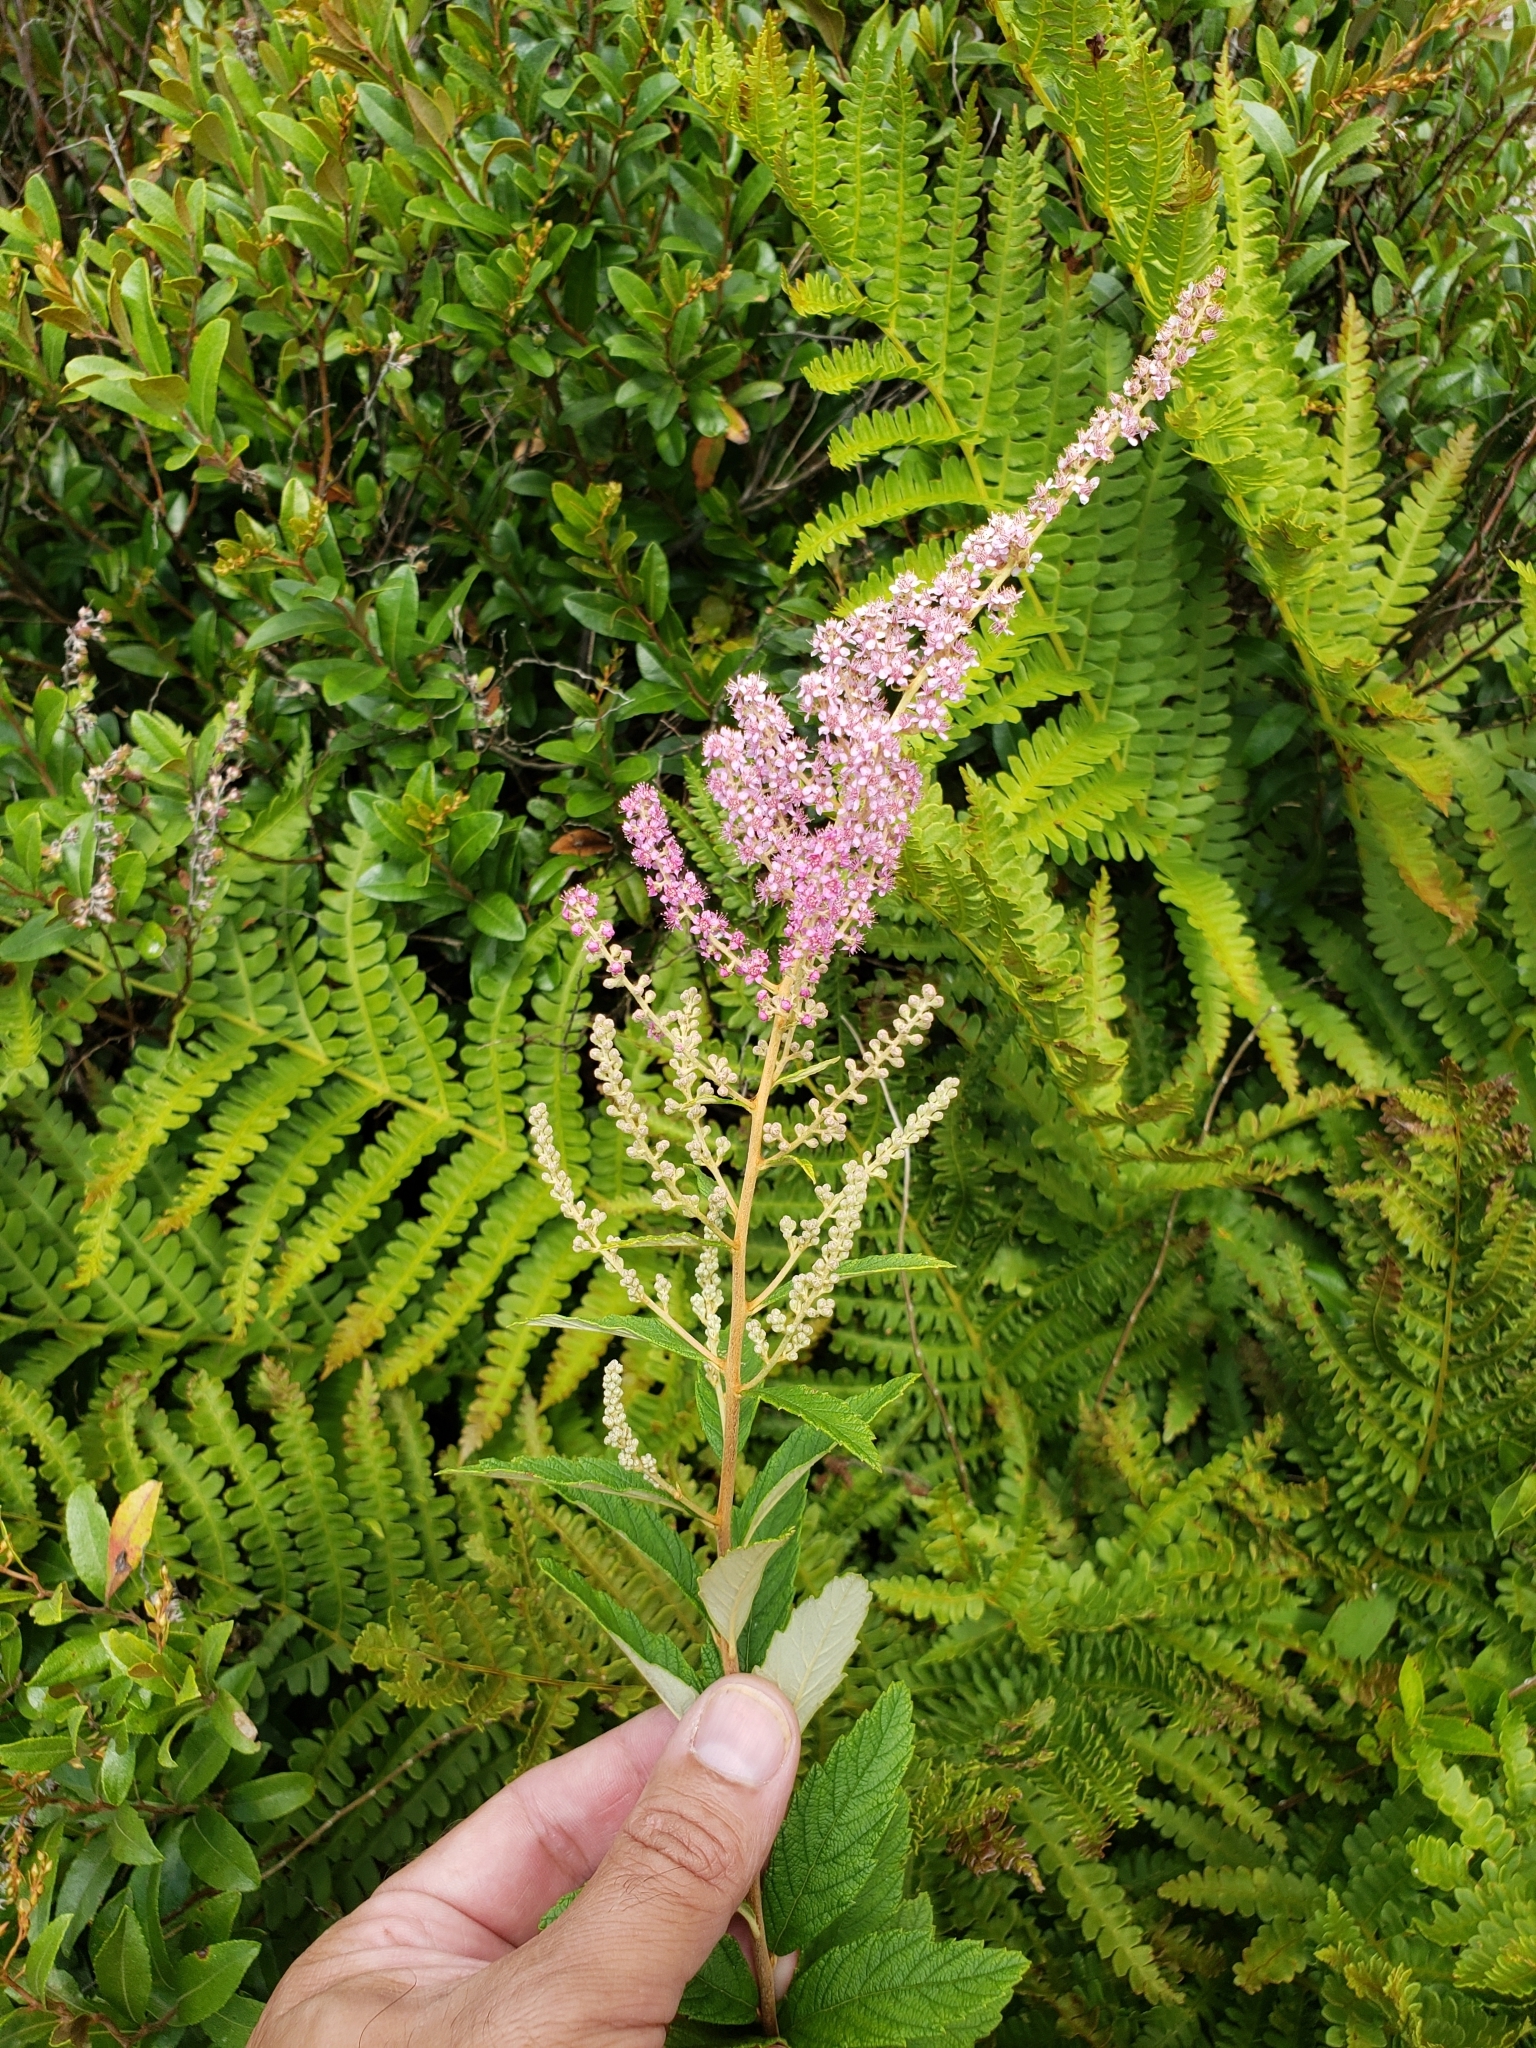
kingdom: Plantae
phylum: Tracheophyta
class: Magnoliopsida
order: Rosales
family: Rosaceae
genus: Spiraea
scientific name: Spiraea tomentosa
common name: Hardhack
